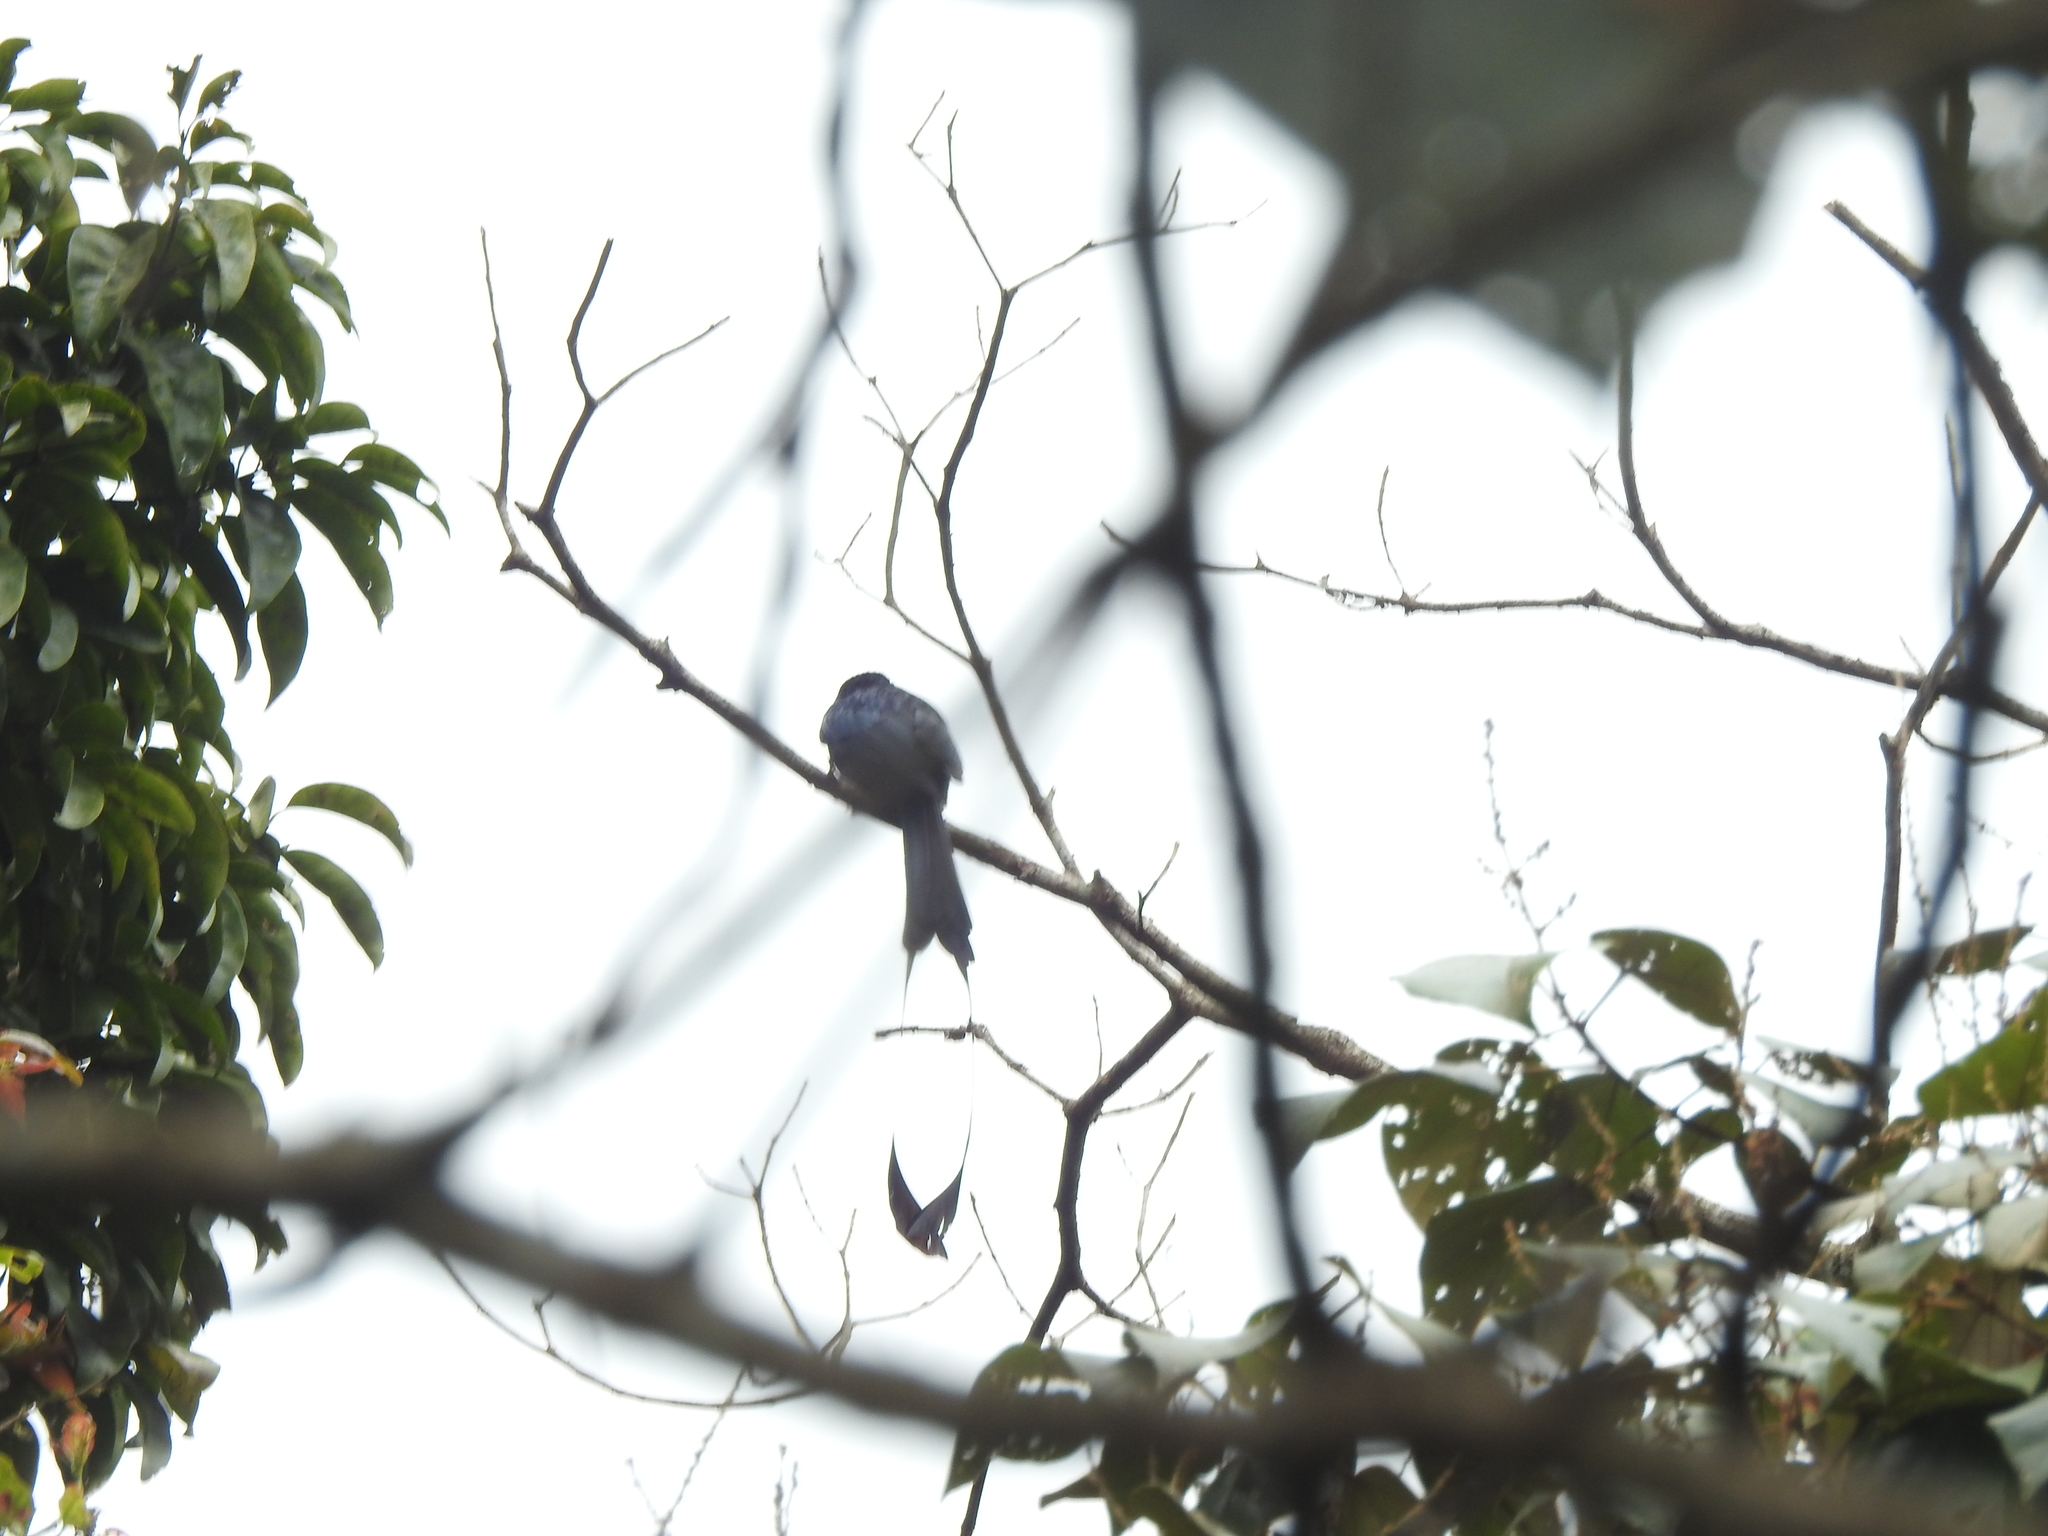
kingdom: Animalia
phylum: Chordata
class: Aves
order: Passeriformes
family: Dicruridae
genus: Dicrurus
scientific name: Dicrurus paradiseus
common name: Greater racket-tailed drongo
